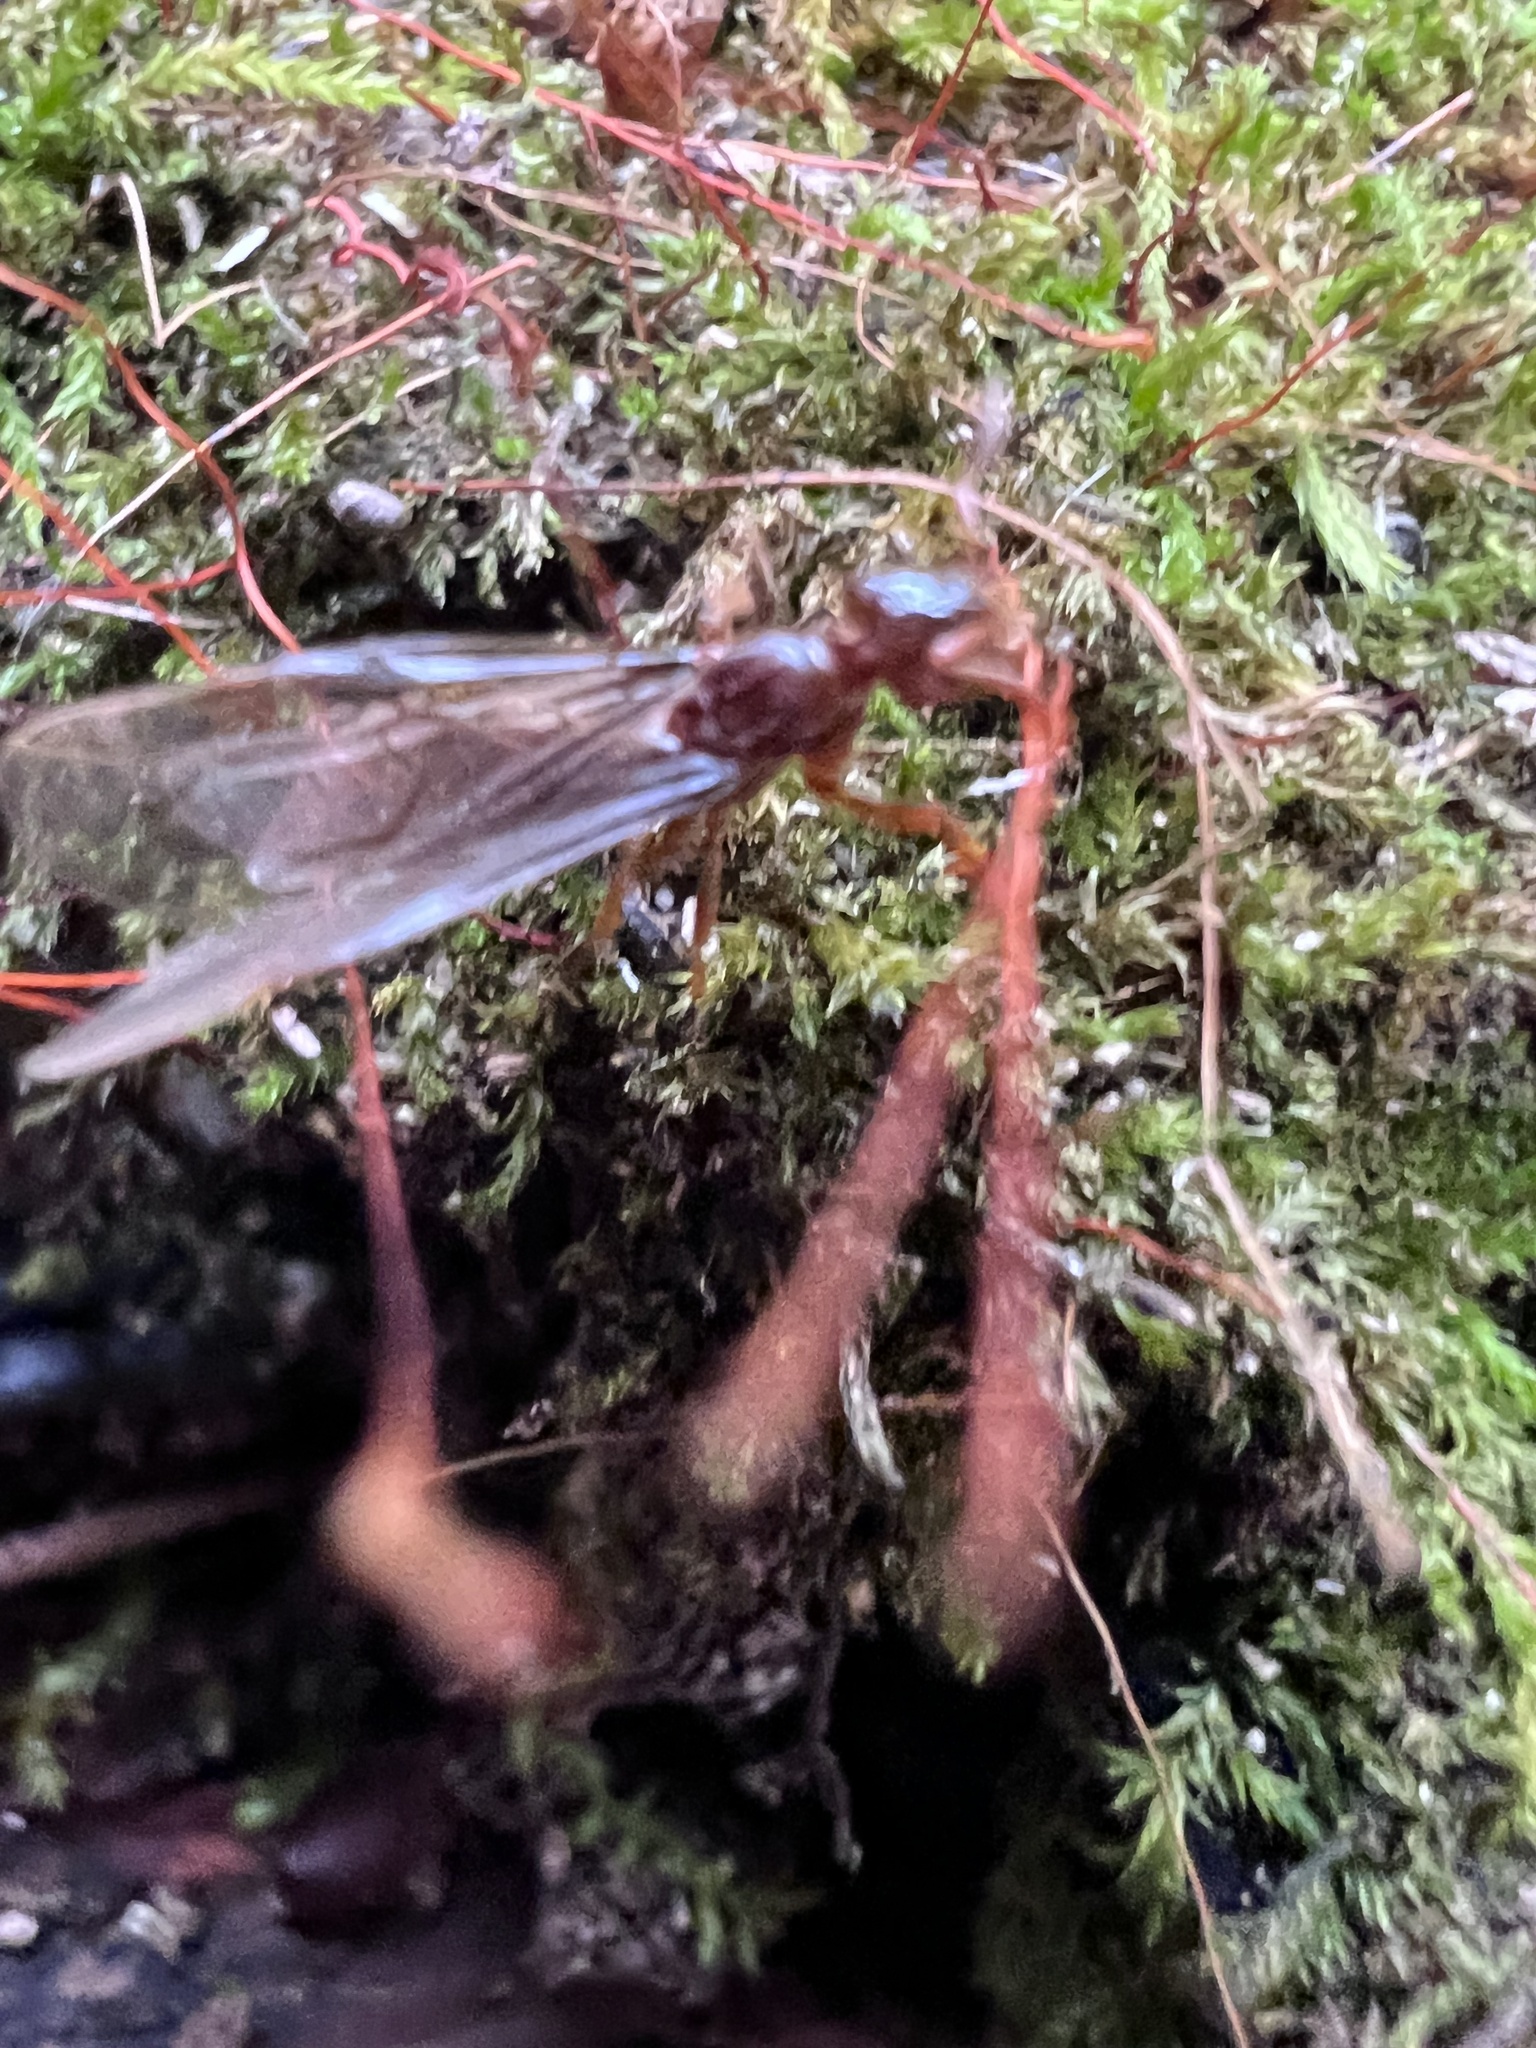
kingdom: Animalia
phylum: Arthropoda
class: Insecta
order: Hymenoptera
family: Formicidae
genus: Lasius
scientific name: Lasius claviger
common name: Common citronella ant
